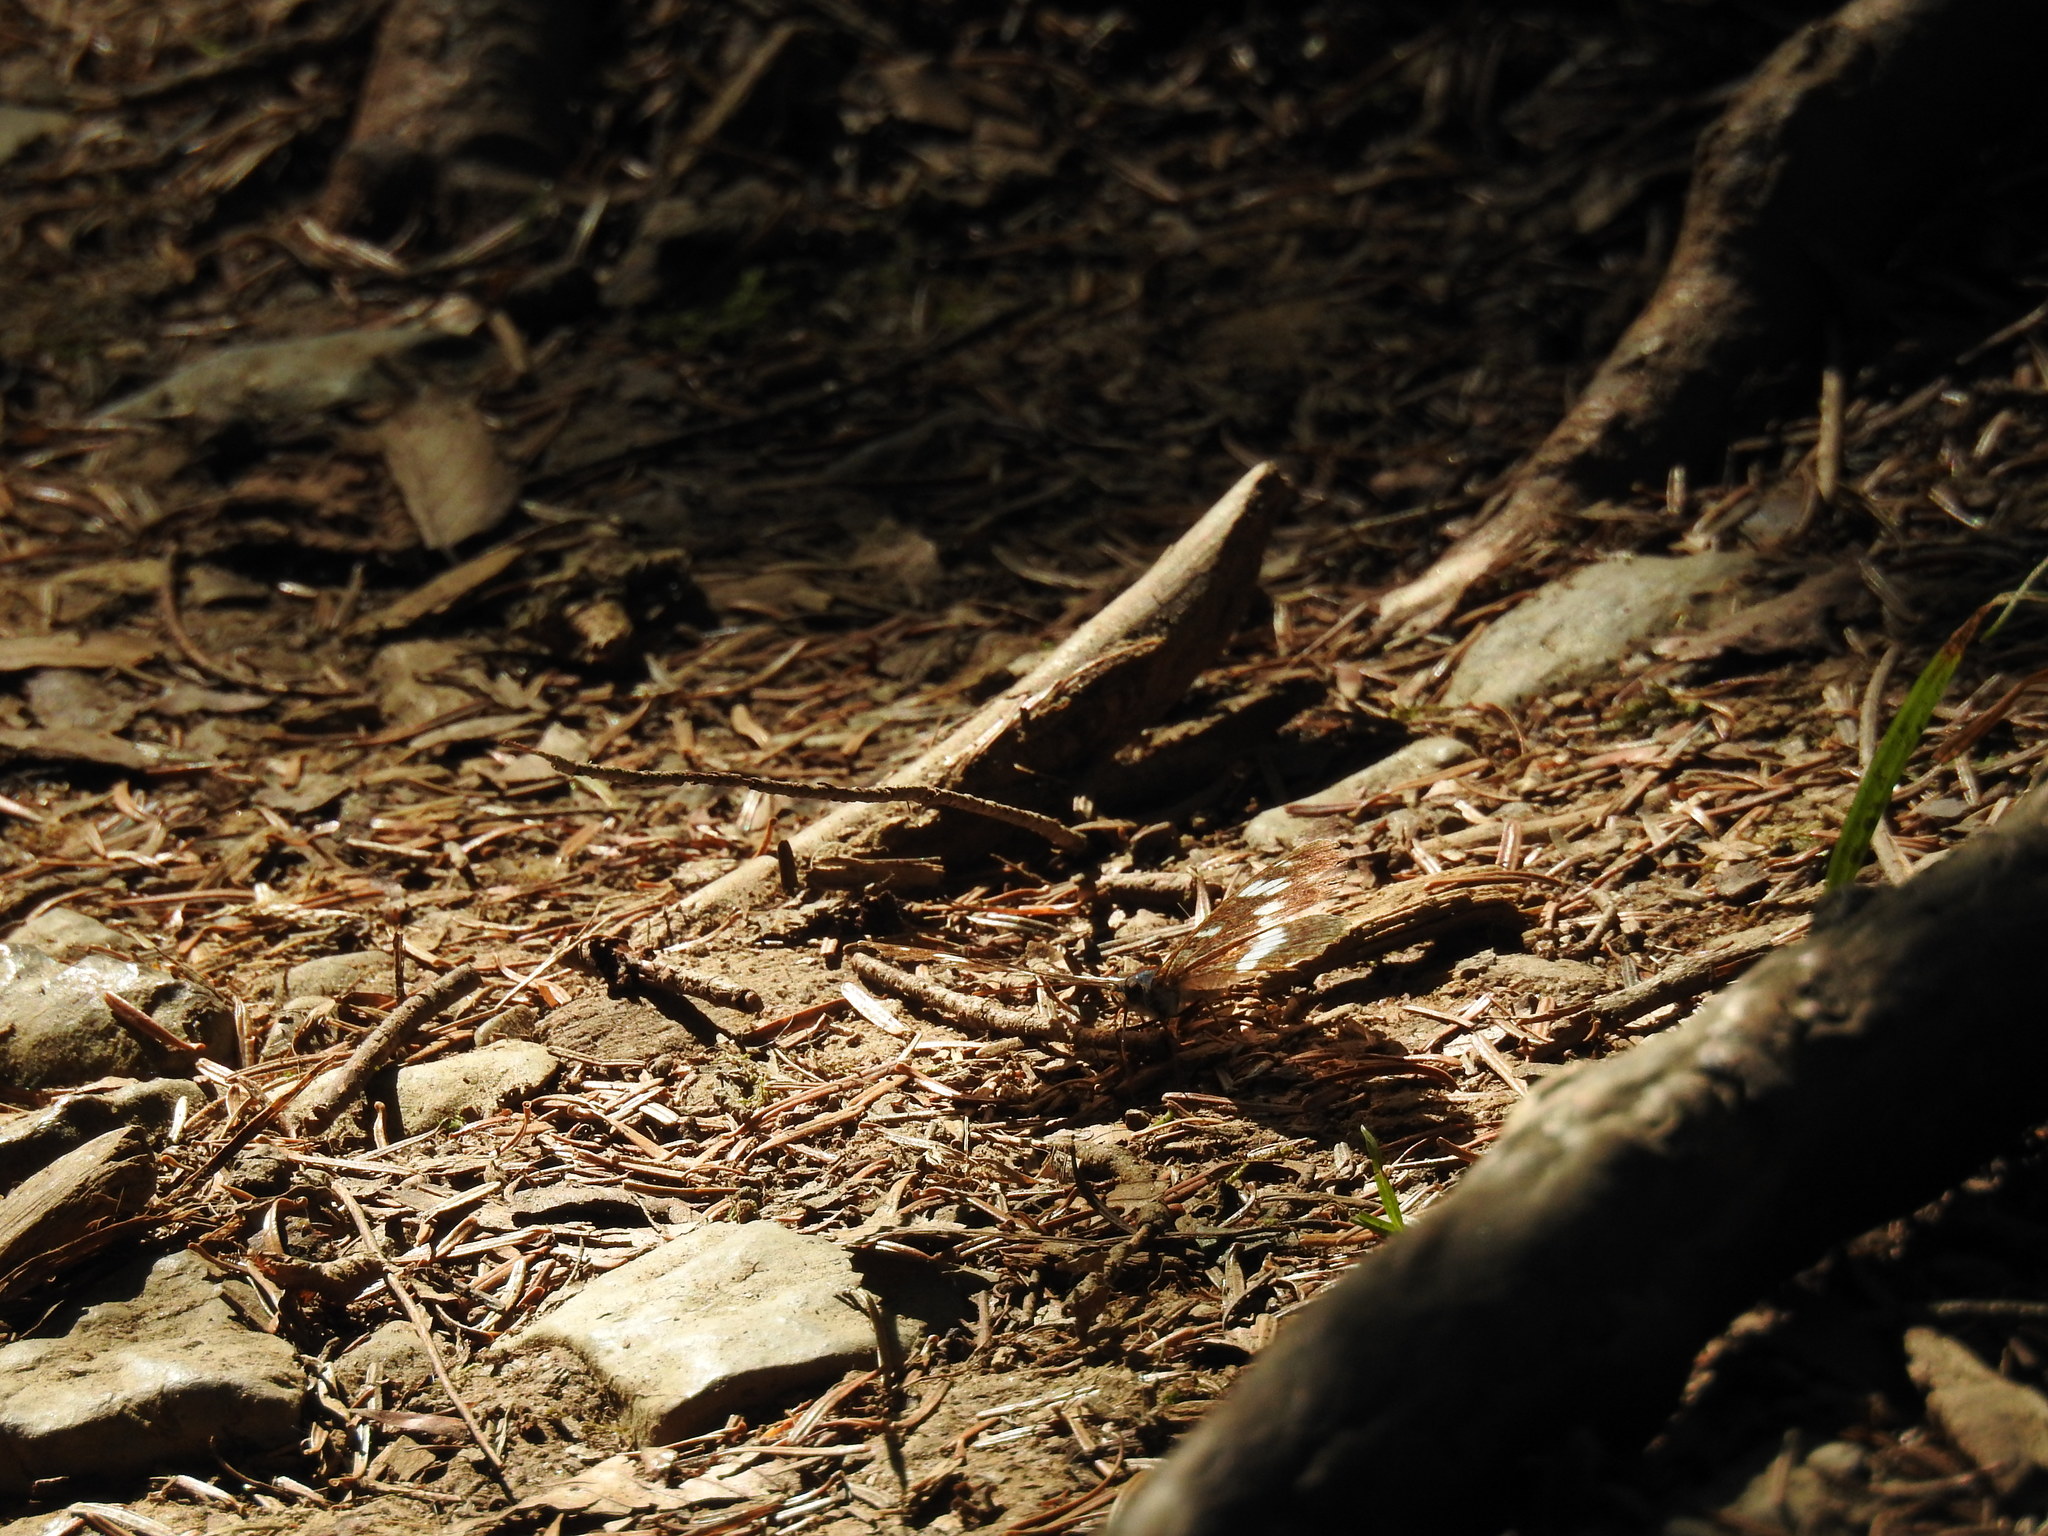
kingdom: Animalia
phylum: Arthropoda
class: Insecta
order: Lepidoptera
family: Nymphalidae
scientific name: Nymphalidae
